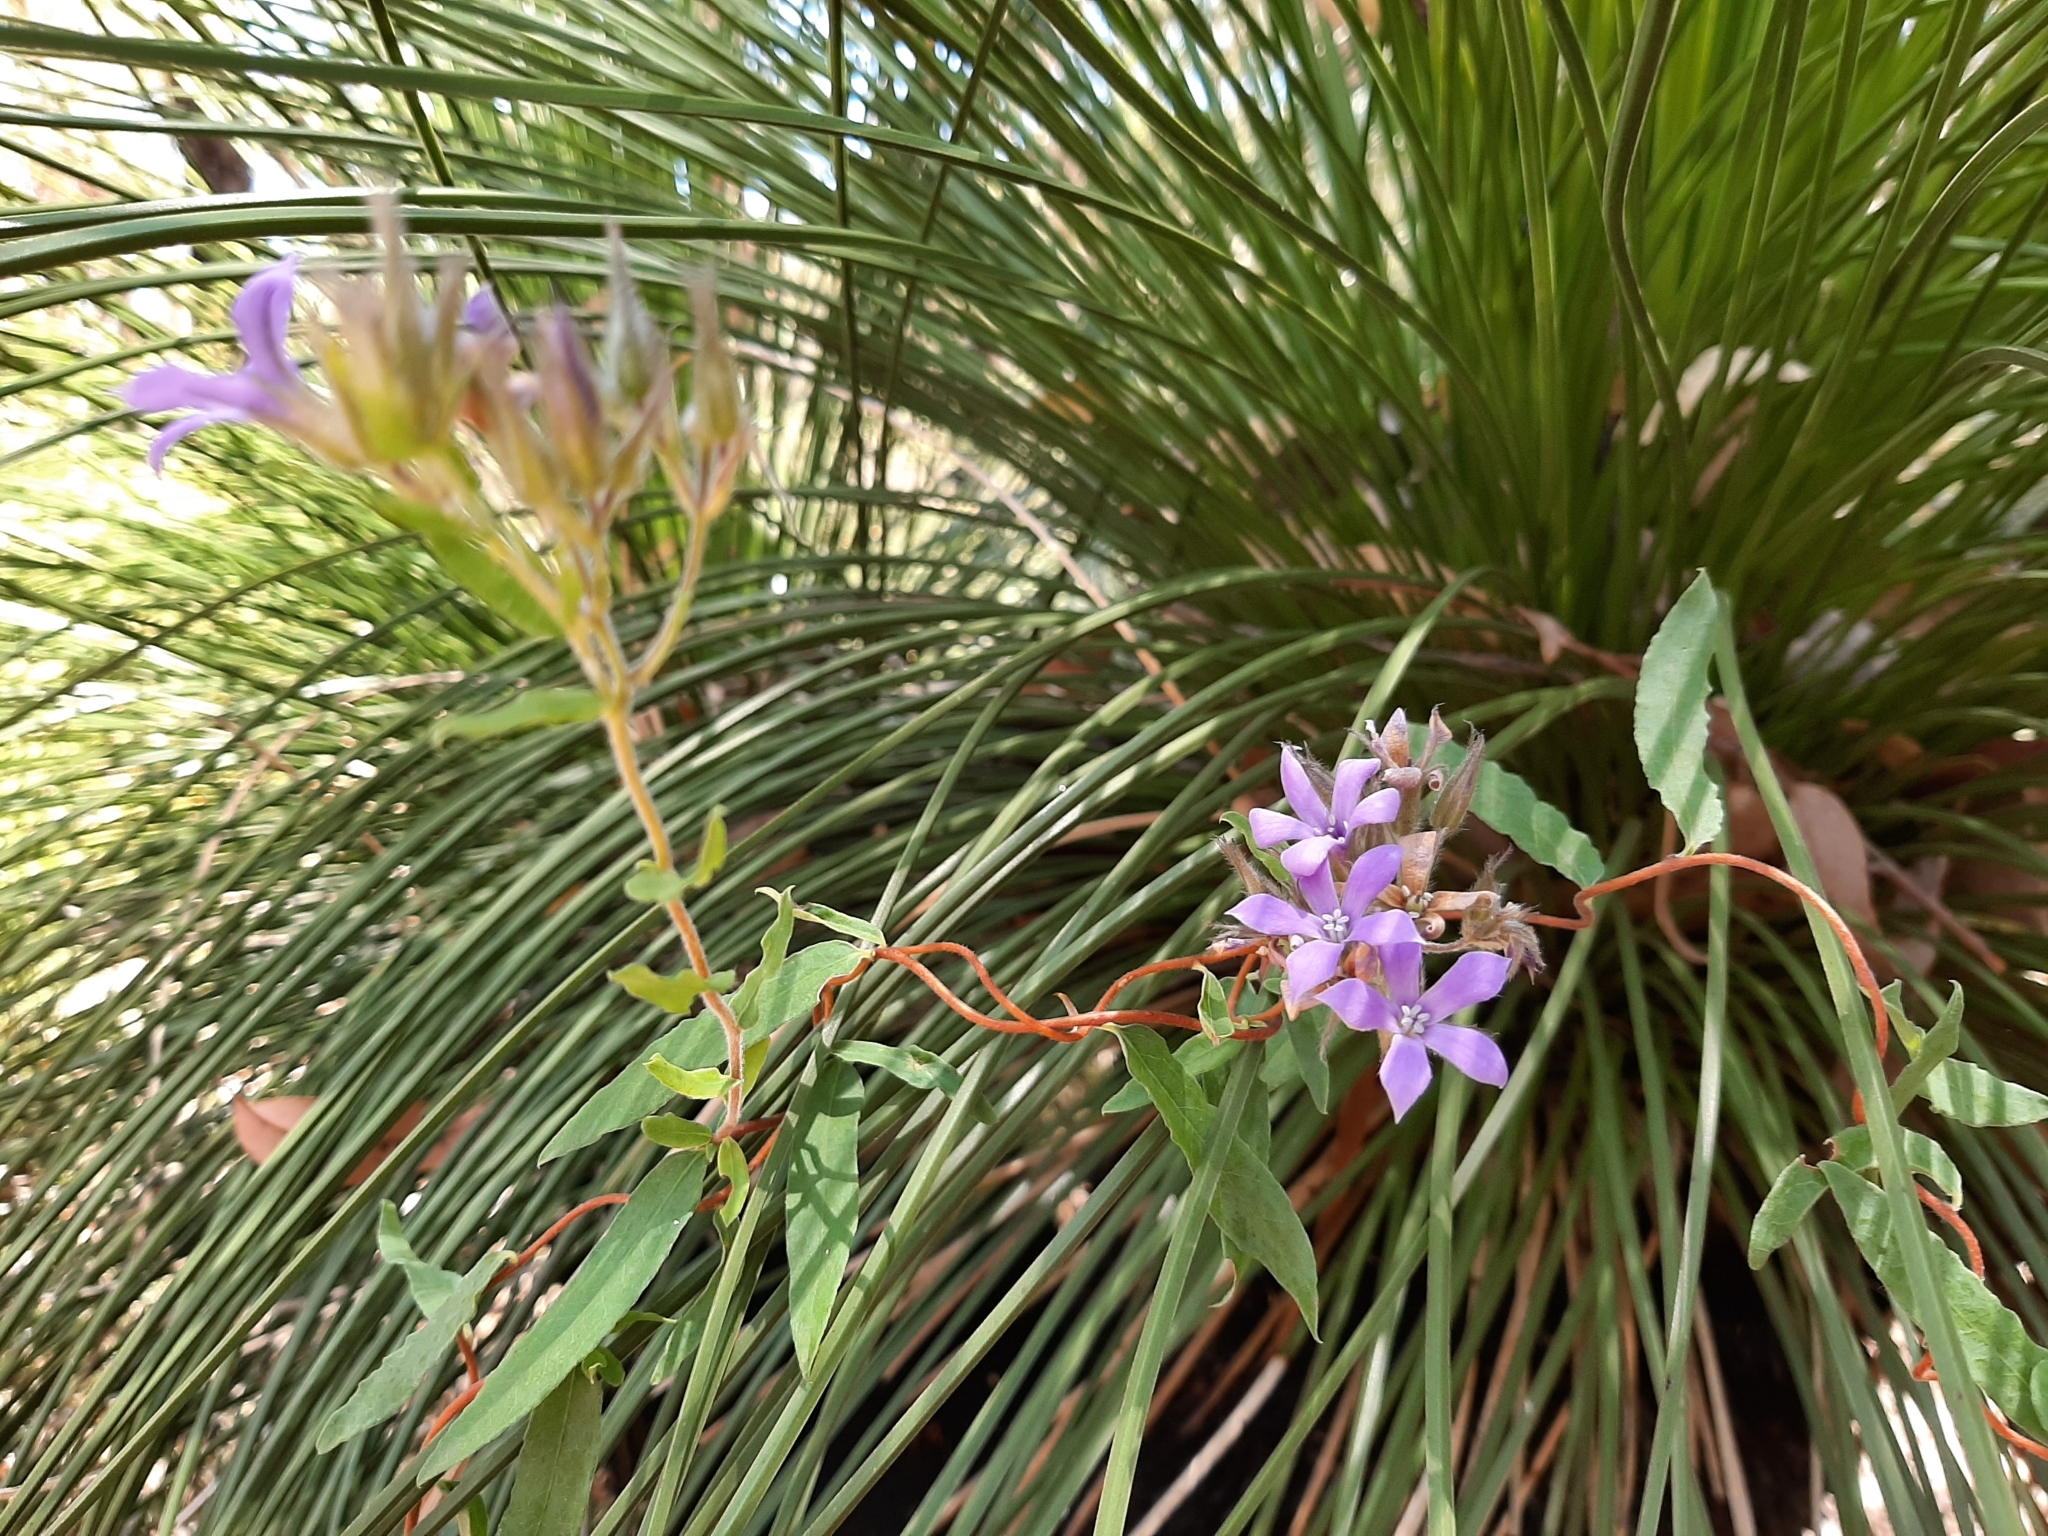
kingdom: Plantae
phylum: Tracheophyta
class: Magnoliopsida
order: Apiales
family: Pittosporaceae
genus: Billardiera
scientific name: Billardiera variifolia
